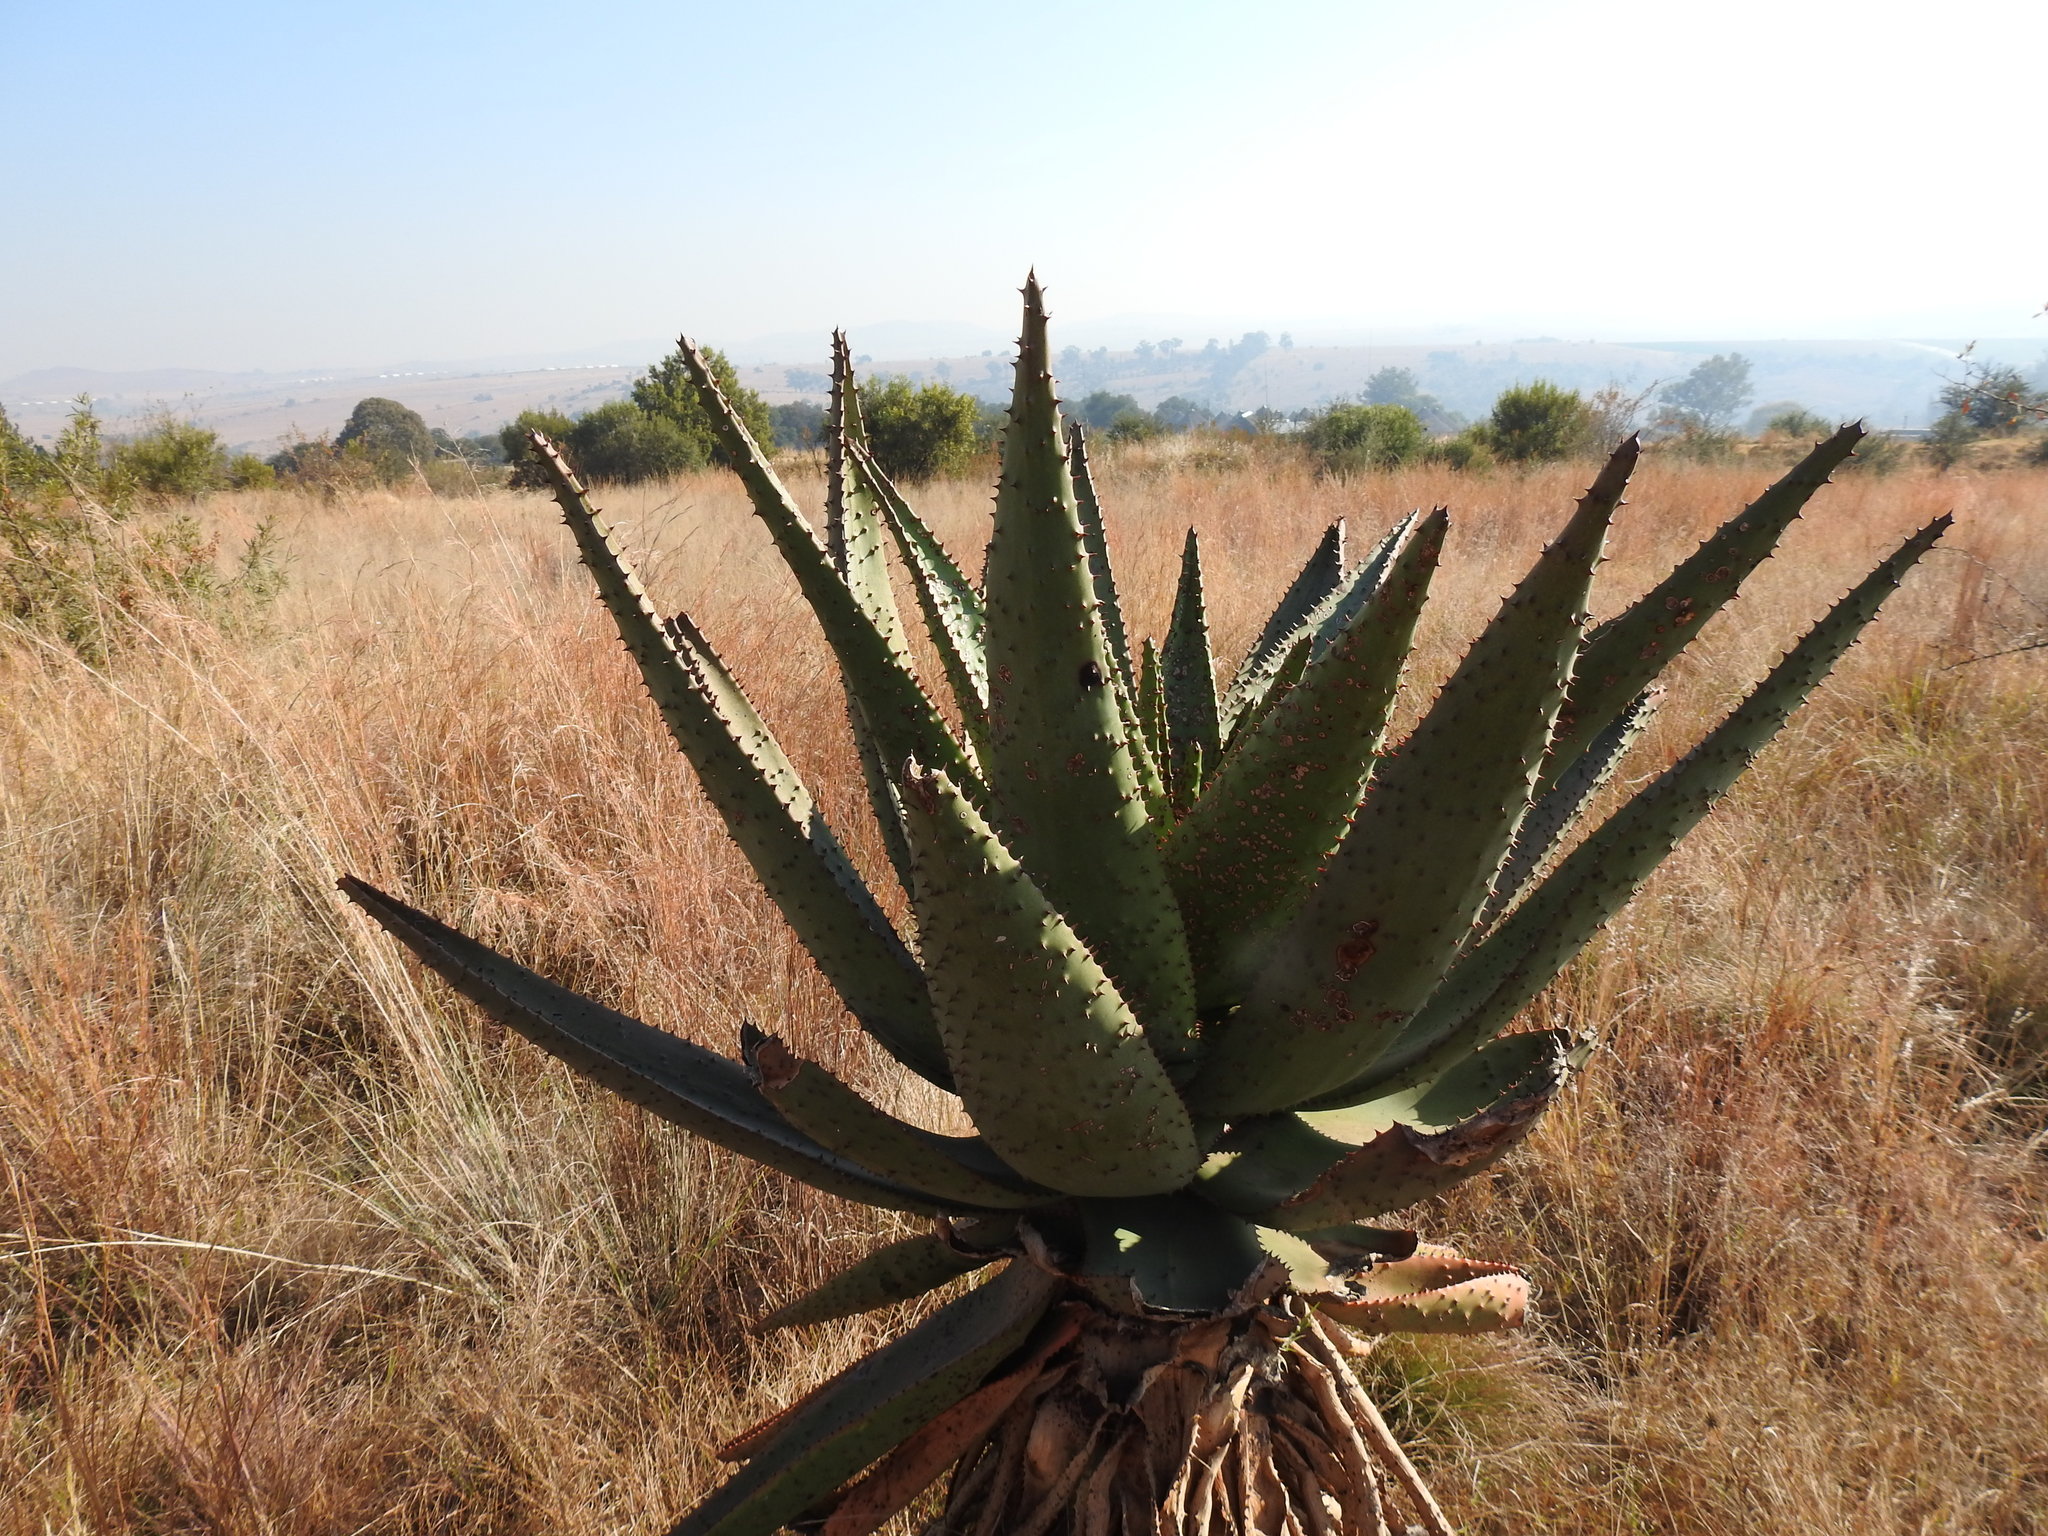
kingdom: Plantae
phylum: Tracheophyta
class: Liliopsida
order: Asparagales
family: Asphodelaceae
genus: Aloe
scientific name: Aloe marlothii
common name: Flat-flowered aloe
